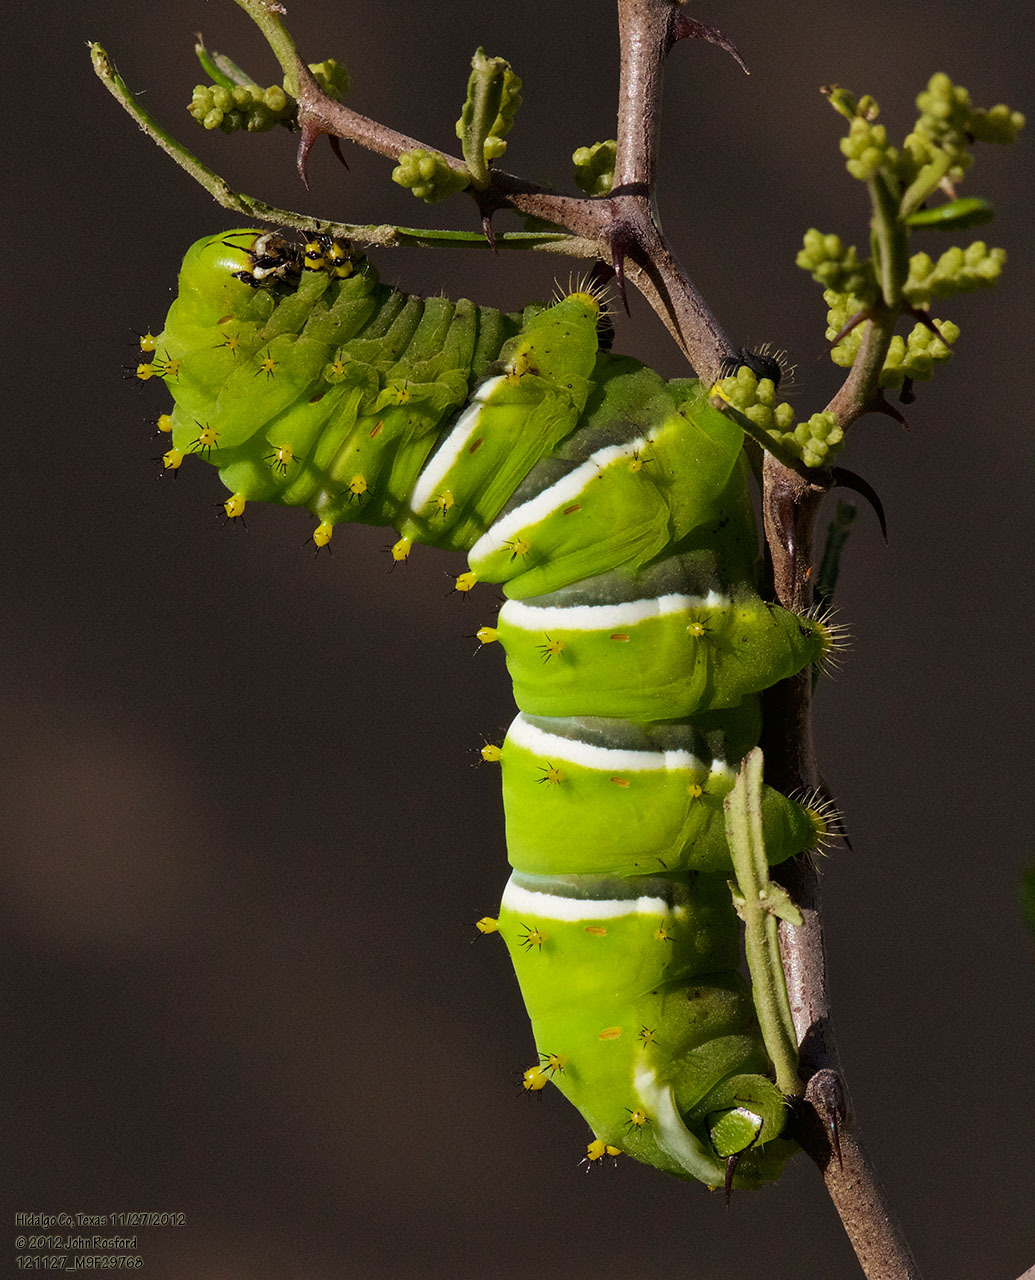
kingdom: Animalia
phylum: Arthropoda
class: Insecta
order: Lepidoptera
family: Saturniidae
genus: Rothschildia
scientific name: Rothschildia lebeau
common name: Lebeau's rothschildia
